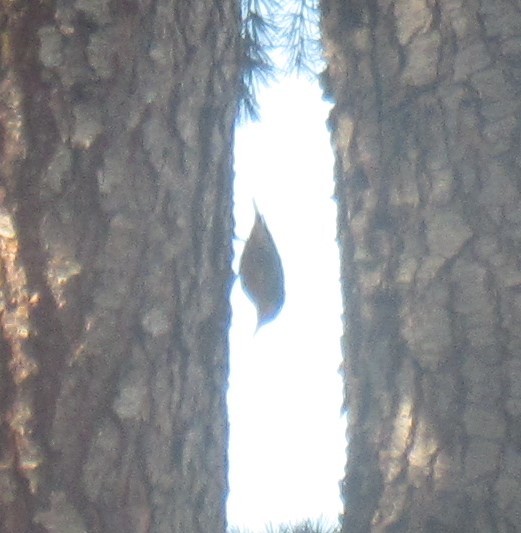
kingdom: Animalia
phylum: Chordata
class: Aves
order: Passeriformes
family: Sittidae
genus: Sitta
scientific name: Sitta canadensis
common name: Red-breasted nuthatch
